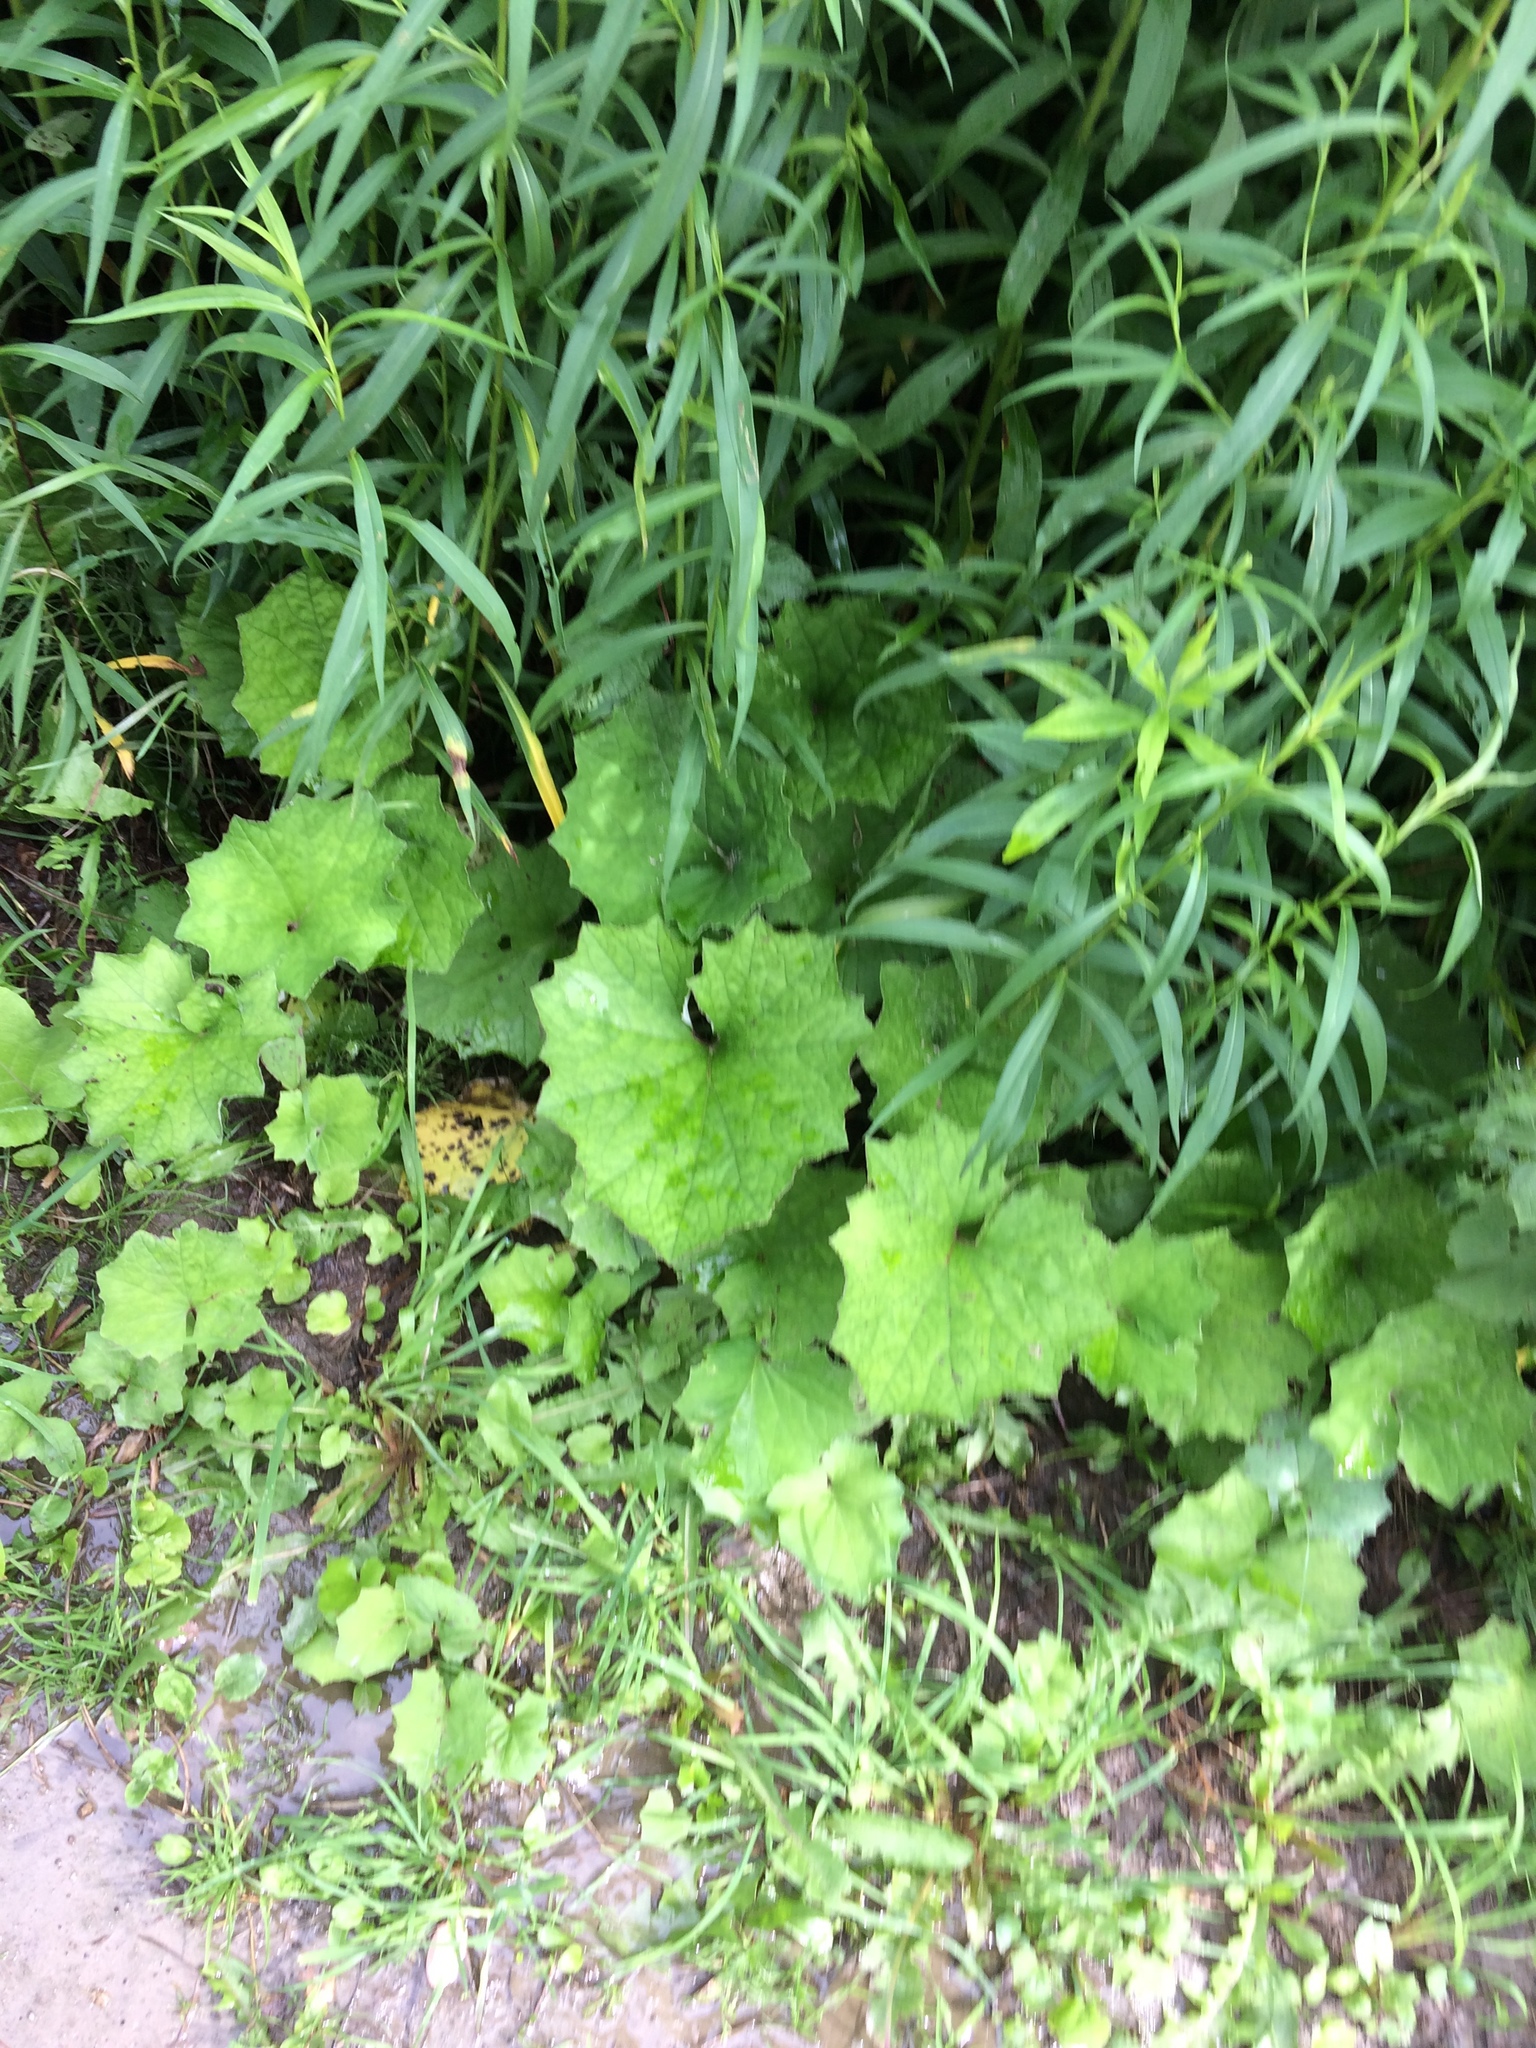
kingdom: Plantae
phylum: Tracheophyta
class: Magnoliopsida
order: Asterales
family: Asteraceae
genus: Tussilago
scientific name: Tussilago farfara
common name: Coltsfoot
